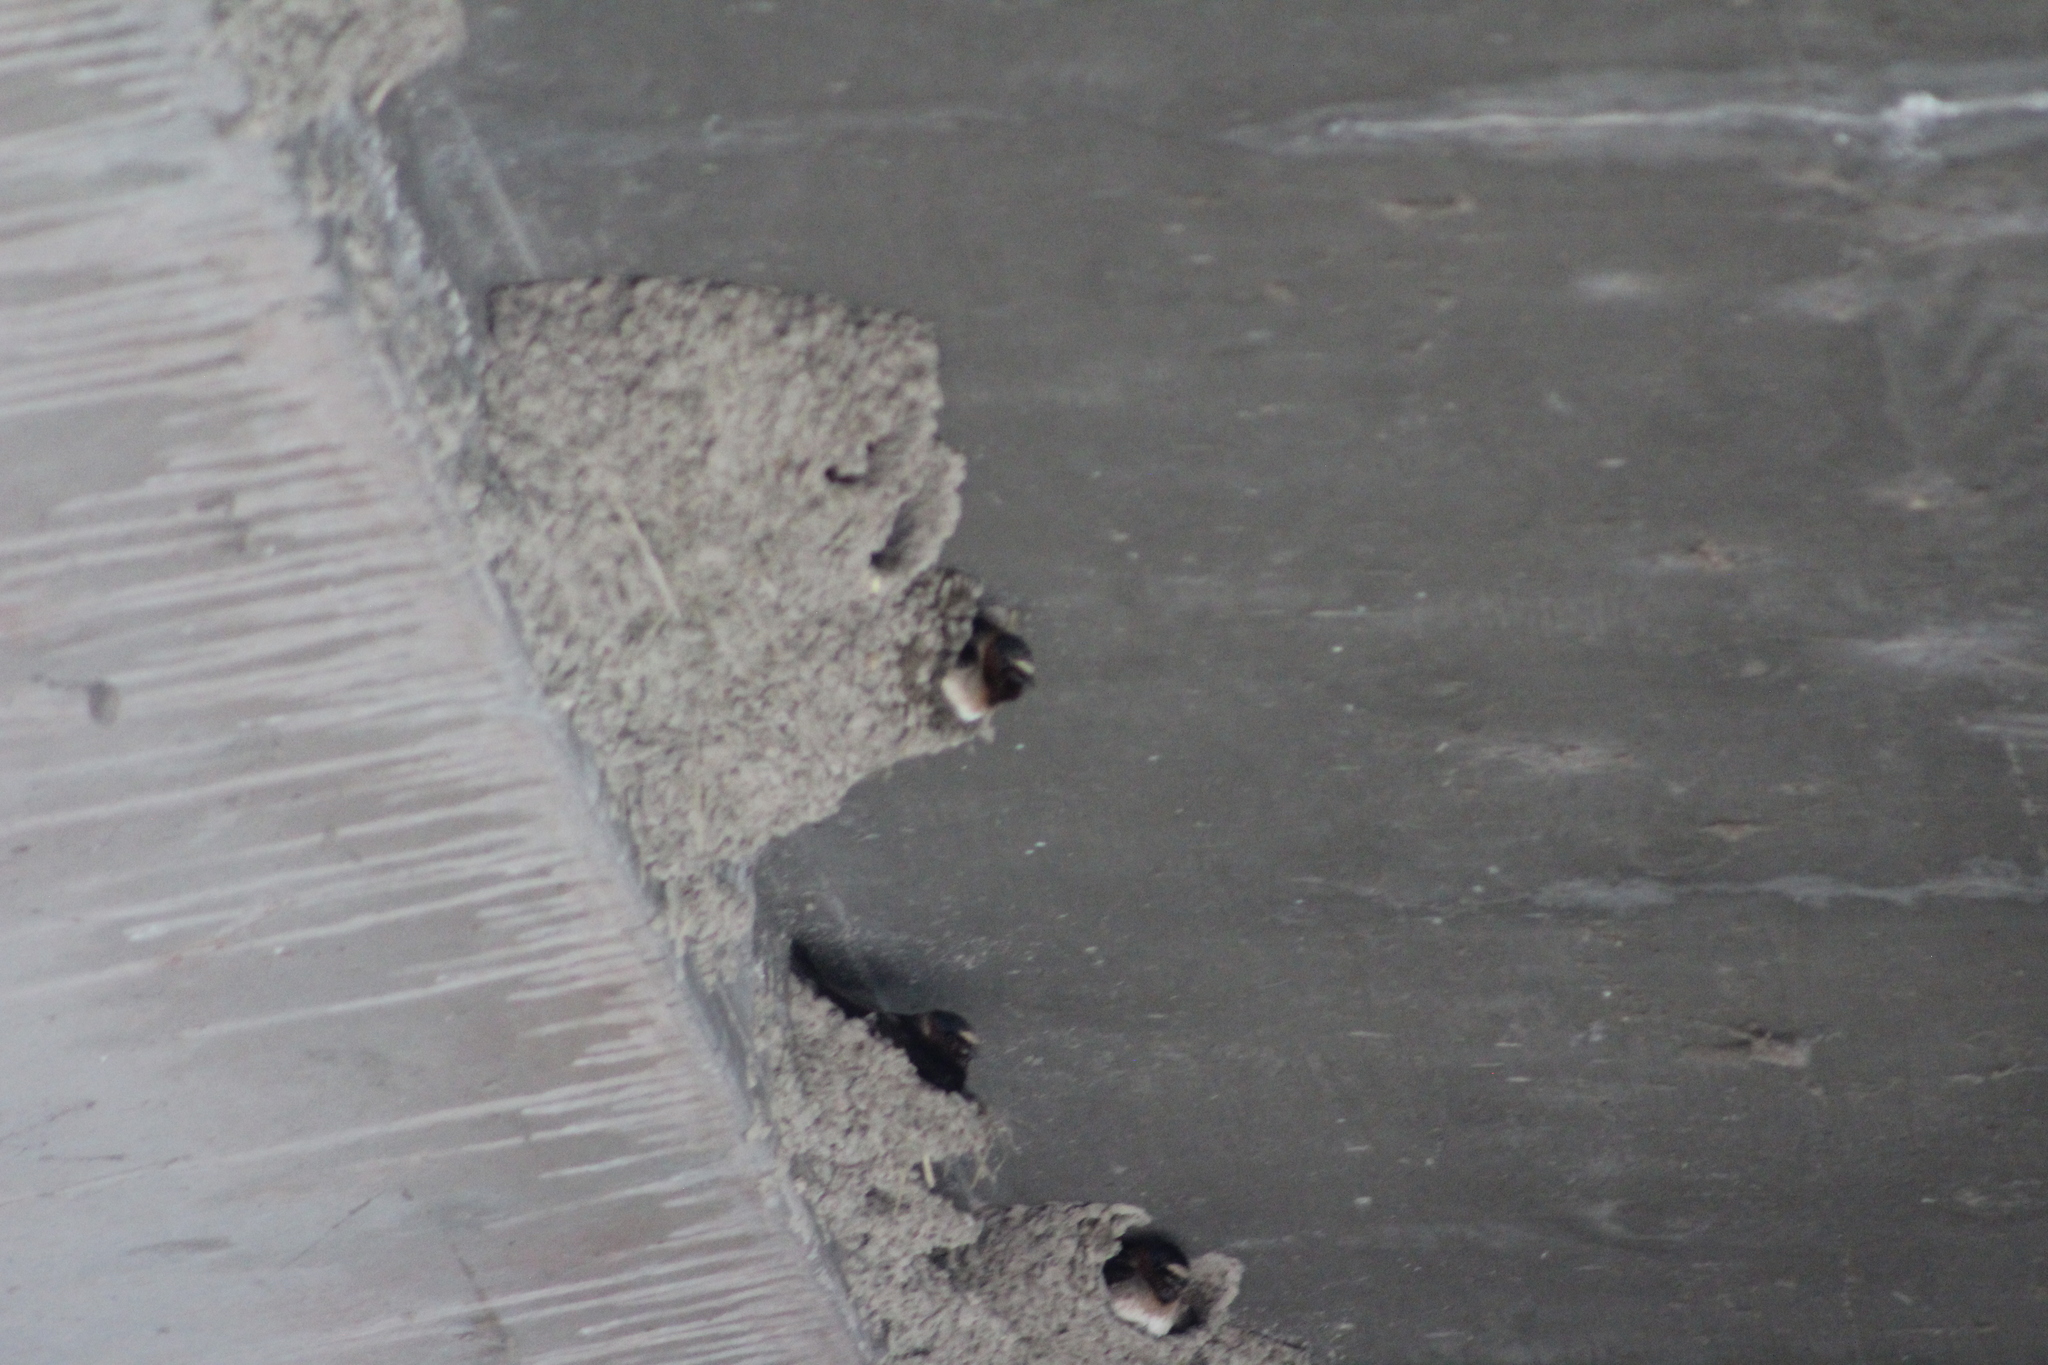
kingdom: Animalia
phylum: Chordata
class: Aves
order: Passeriformes
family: Hirundinidae
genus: Petrochelidon
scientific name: Petrochelidon pyrrhonota
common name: American cliff swallow
